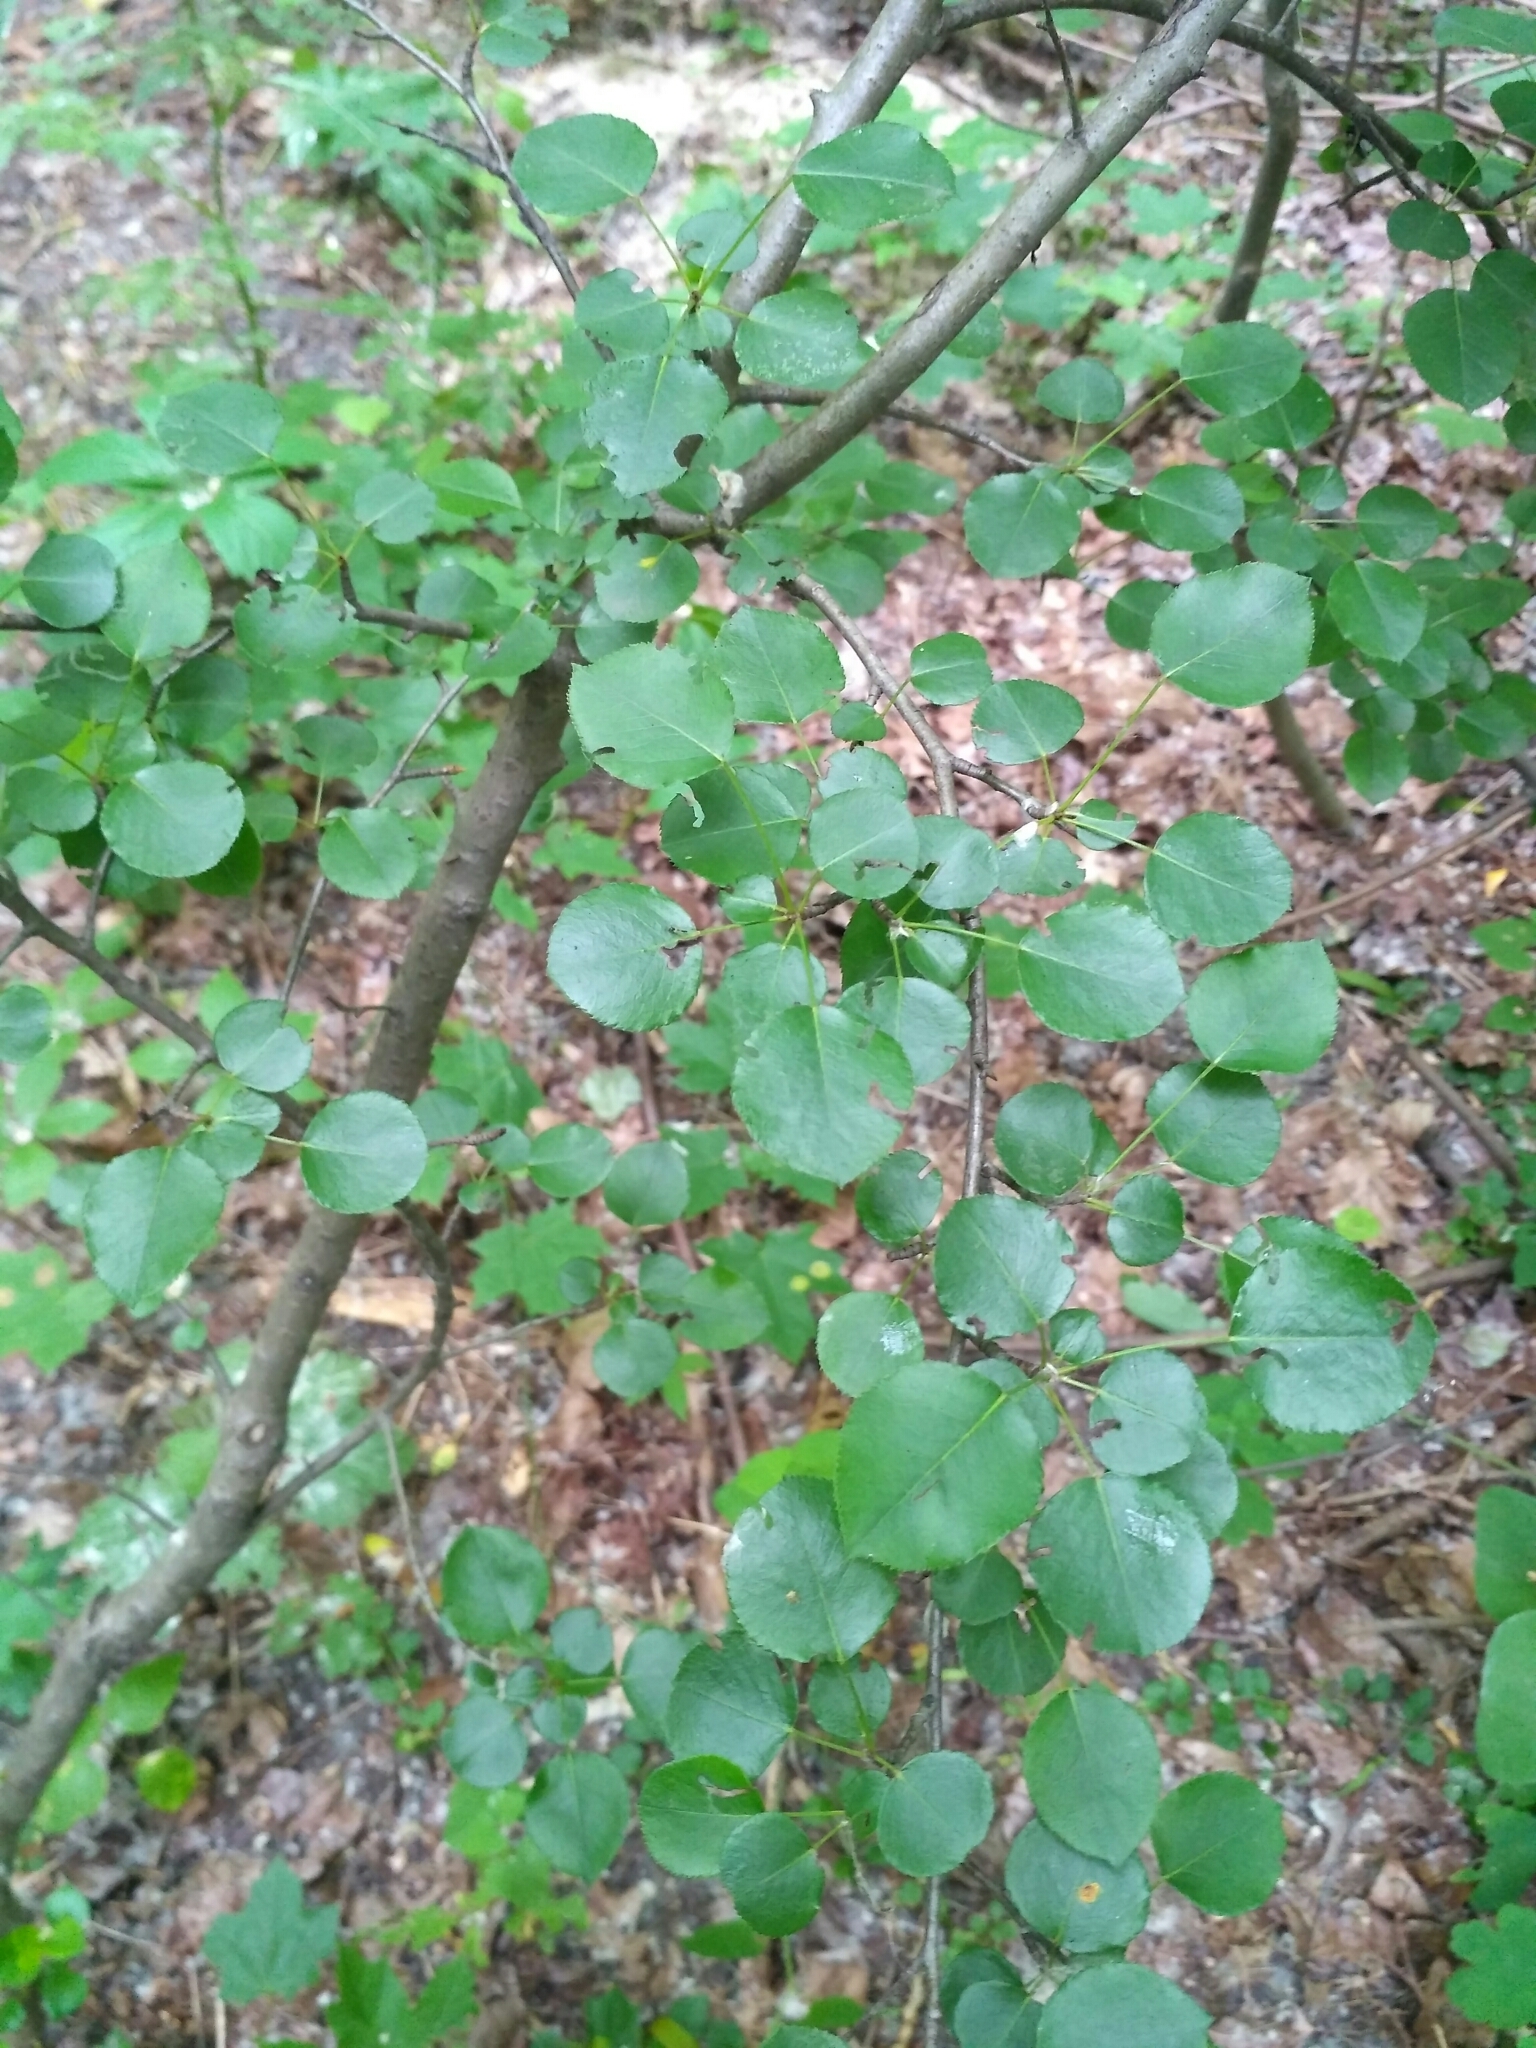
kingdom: Plantae
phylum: Tracheophyta
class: Magnoliopsida
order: Rosales
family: Rosaceae
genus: Pyrus
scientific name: Pyrus communis
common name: Pear
